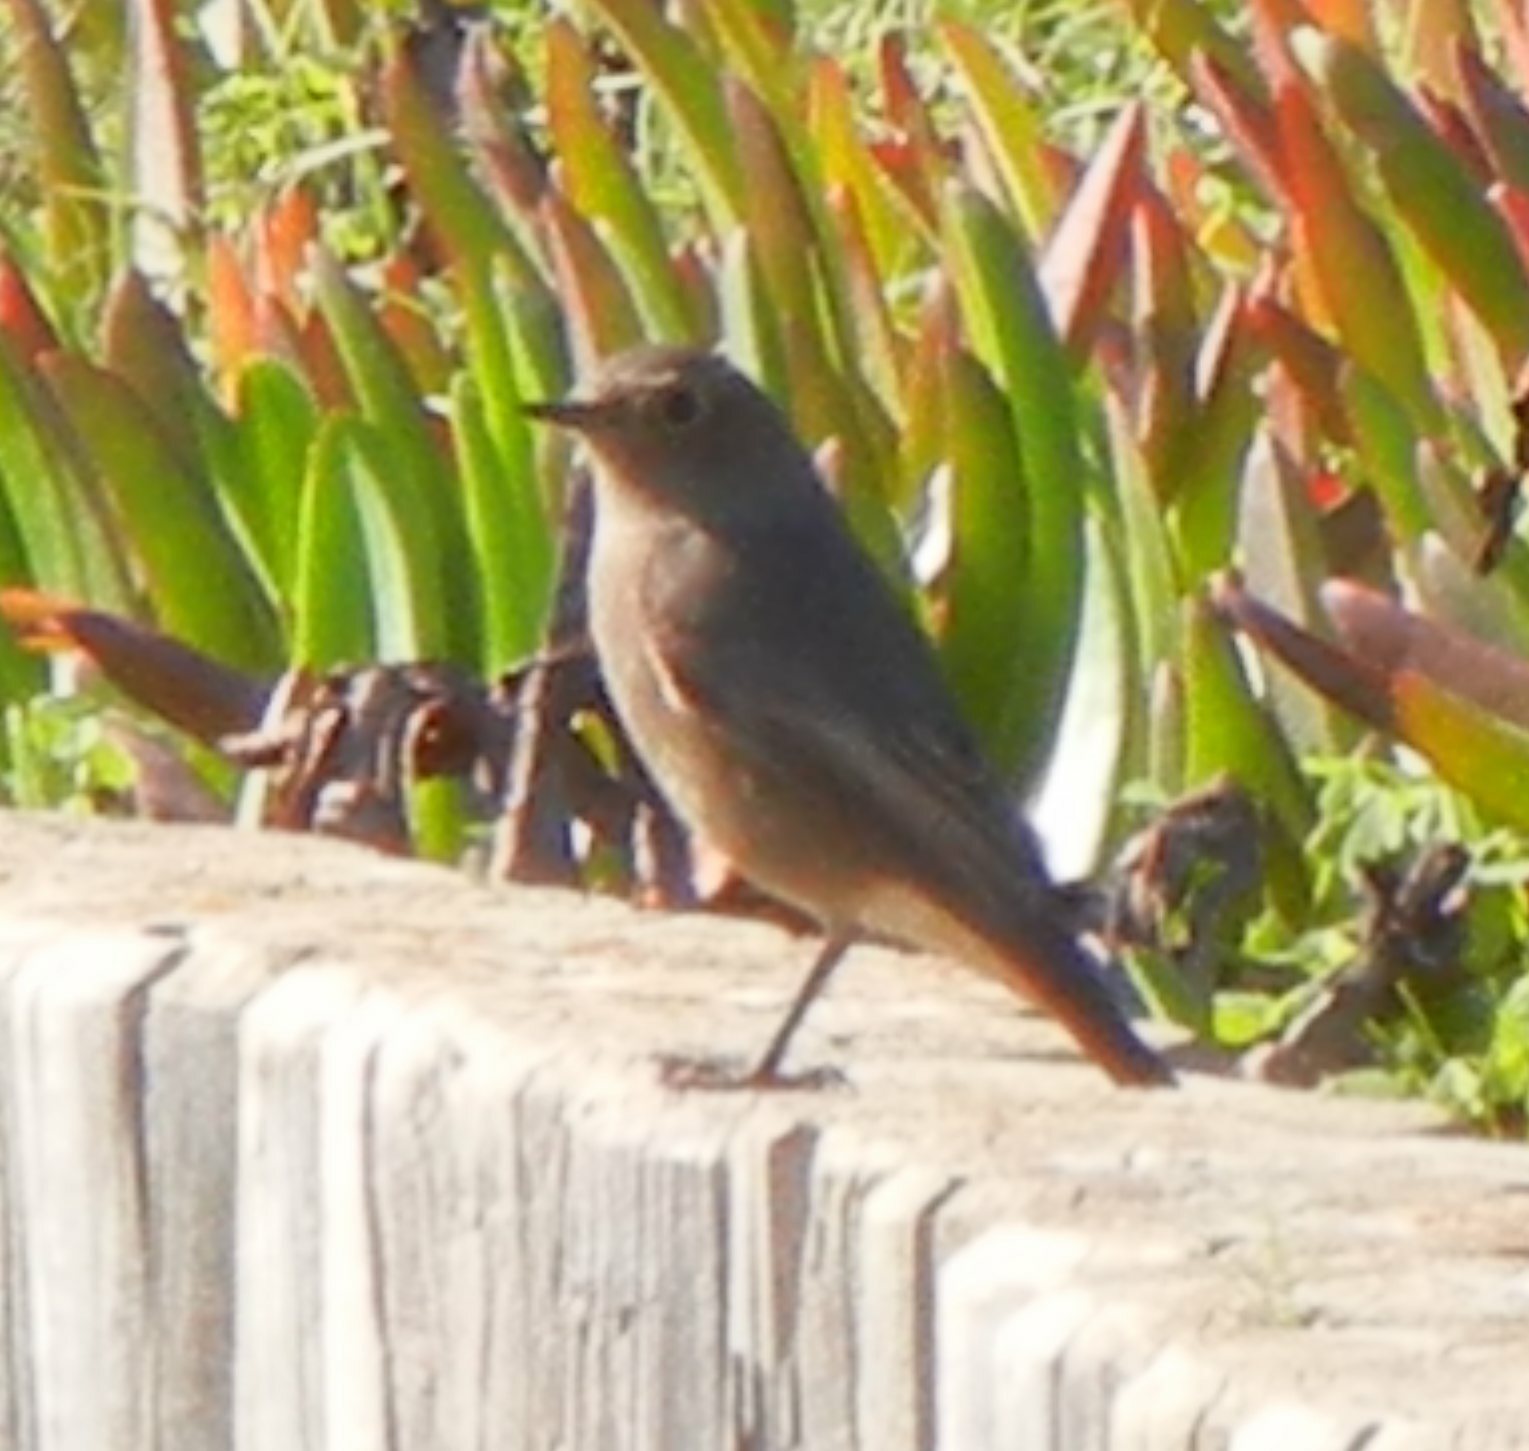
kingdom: Animalia
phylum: Chordata
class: Aves
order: Passeriformes
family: Muscicapidae
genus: Phoenicurus
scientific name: Phoenicurus ochruros
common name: Black redstart
